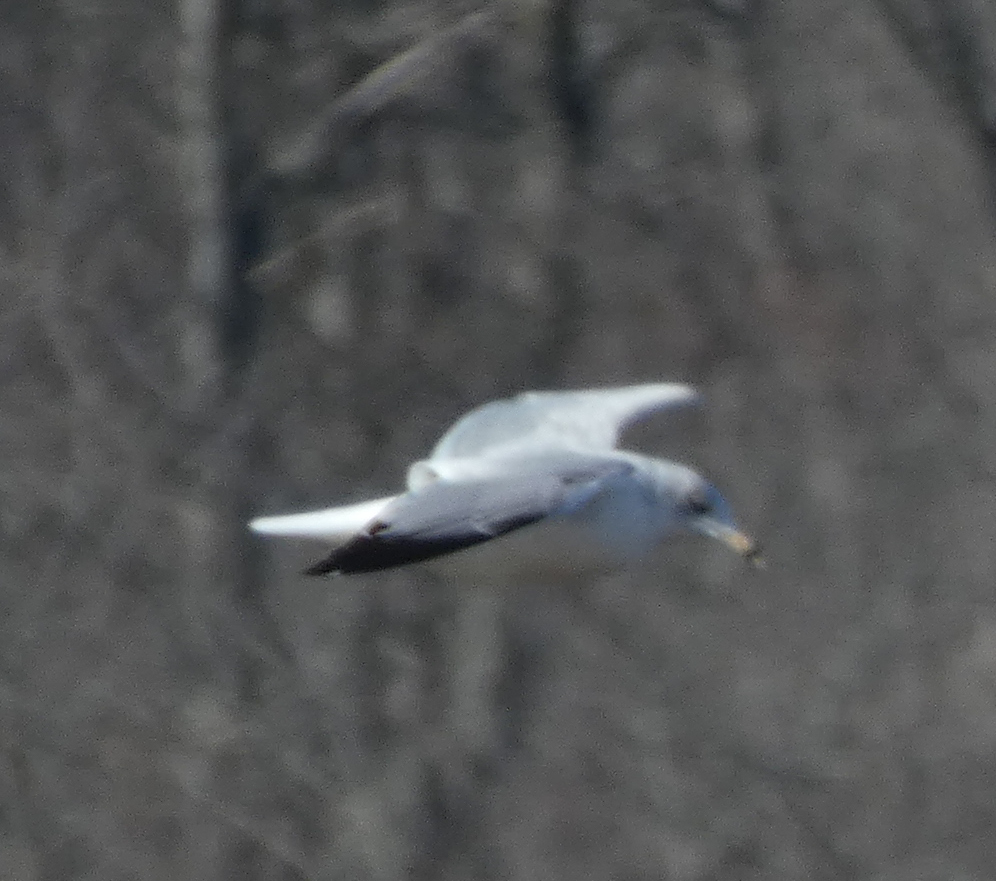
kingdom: Animalia
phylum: Chordata
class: Aves
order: Charadriiformes
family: Laridae
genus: Larus
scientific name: Larus delawarensis
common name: Ring-billed gull
